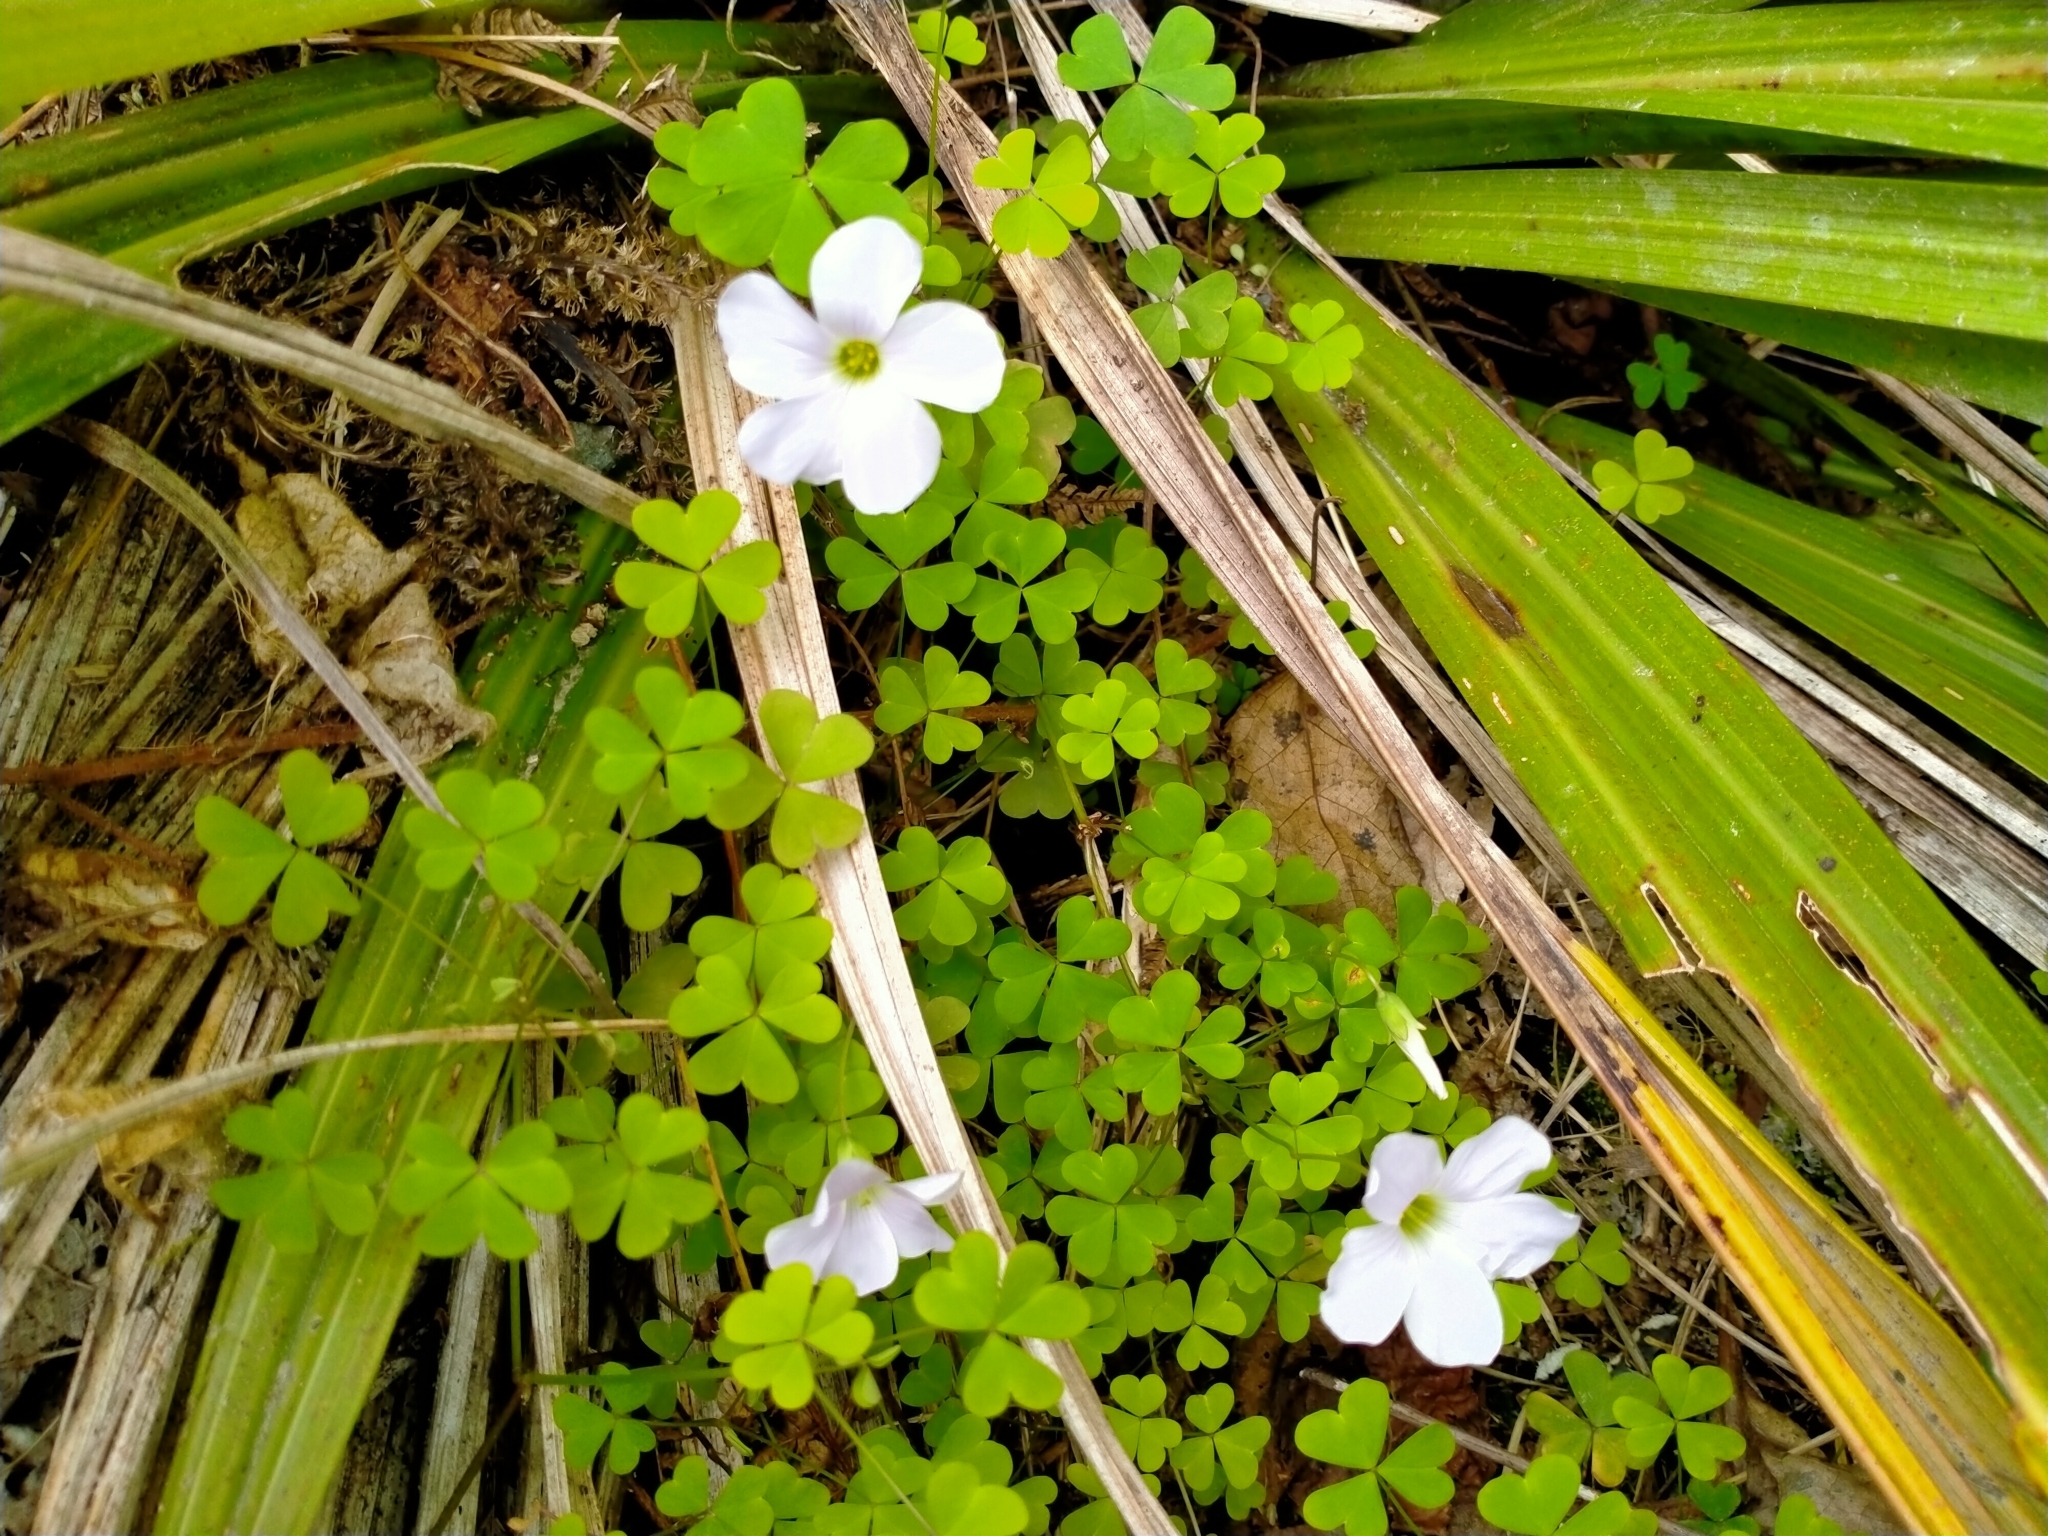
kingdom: Plantae
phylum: Tracheophyta
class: Magnoliopsida
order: Oxalidales
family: Oxalidaceae
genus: Oxalis
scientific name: Oxalis incarnata
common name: Pale pink-sorrel
